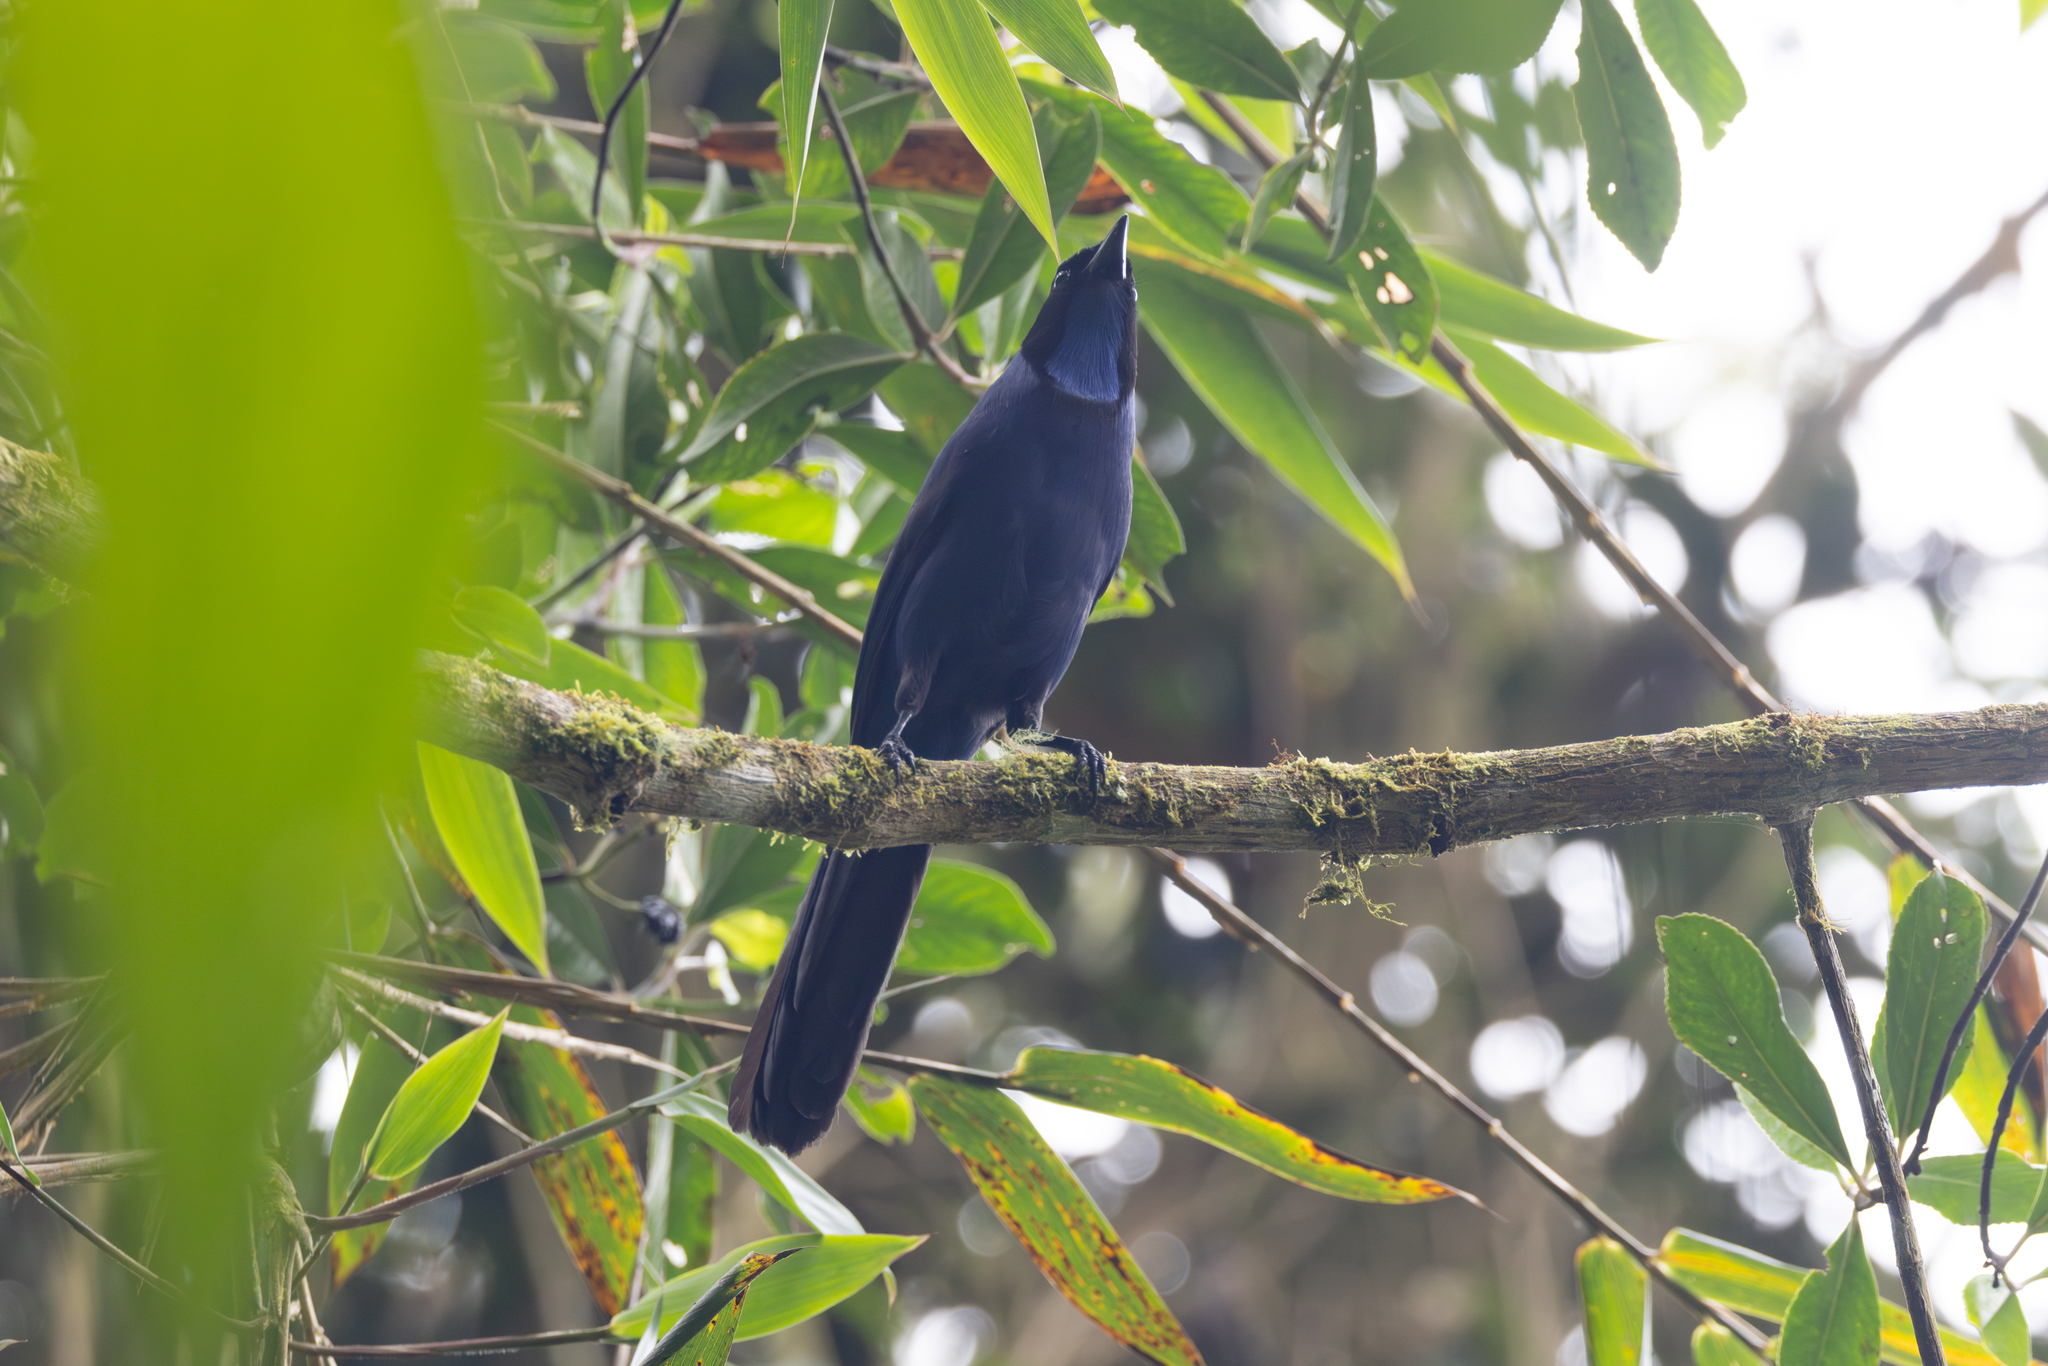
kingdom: Animalia
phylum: Chordata
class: Aves
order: Passeriformes
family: Corvidae
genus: Cyanolyca
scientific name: Cyanolyca armillata
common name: Black-collared jay
